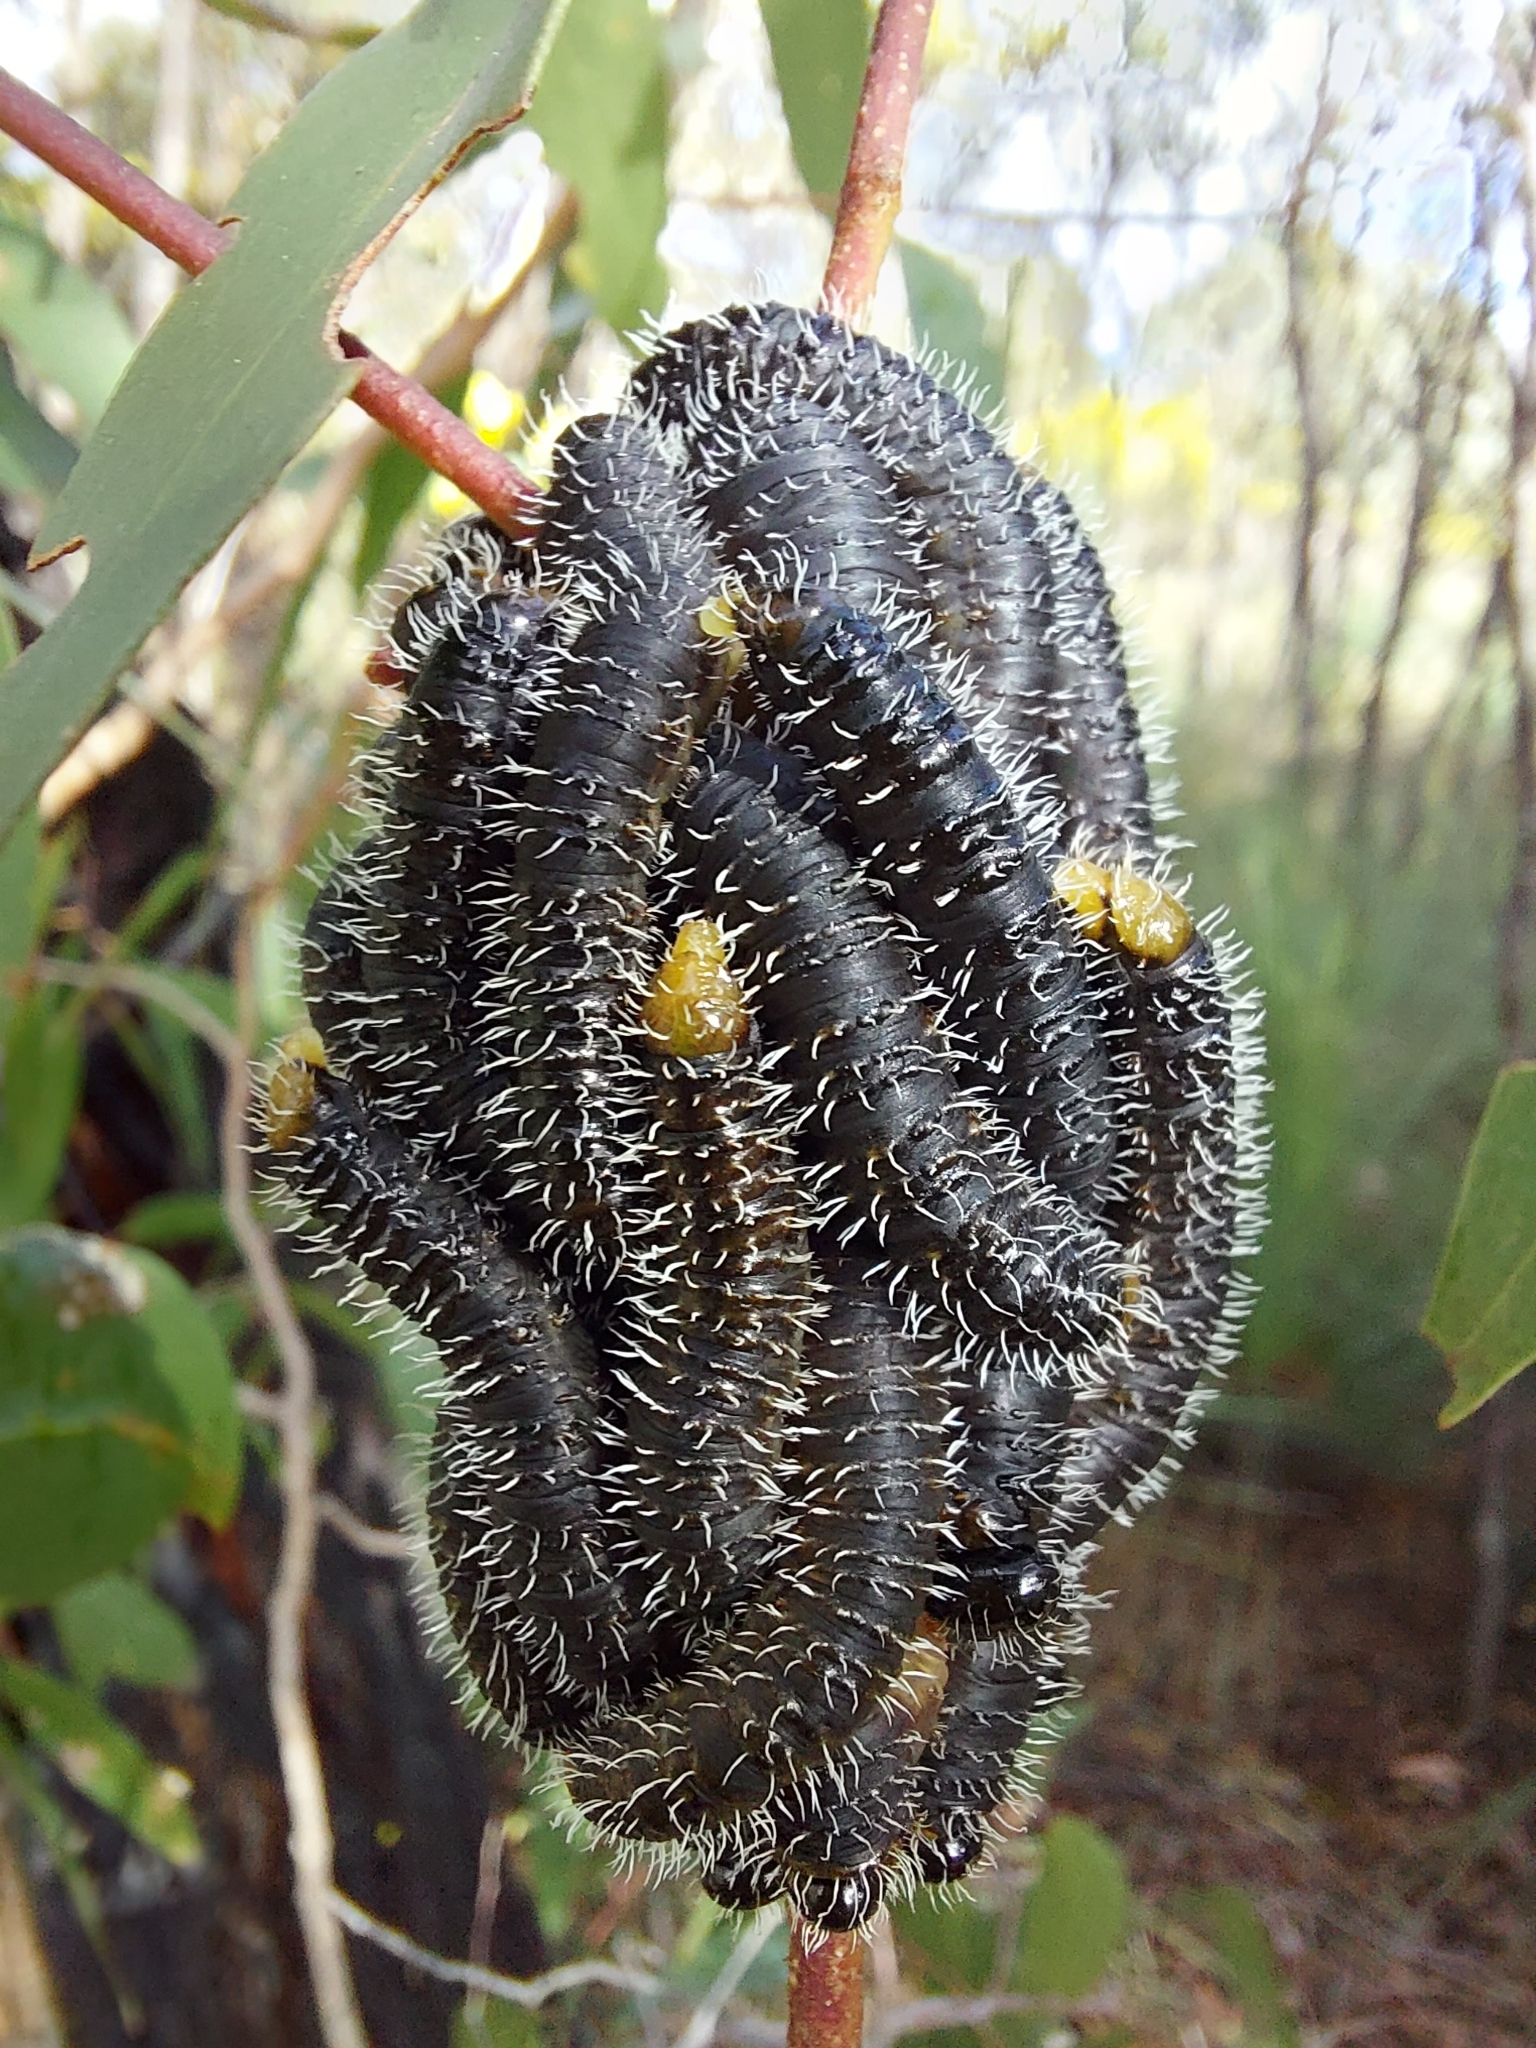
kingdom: Animalia
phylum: Arthropoda
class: Insecta
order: Hymenoptera
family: Pergidae
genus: Perga
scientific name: Perga affinis
